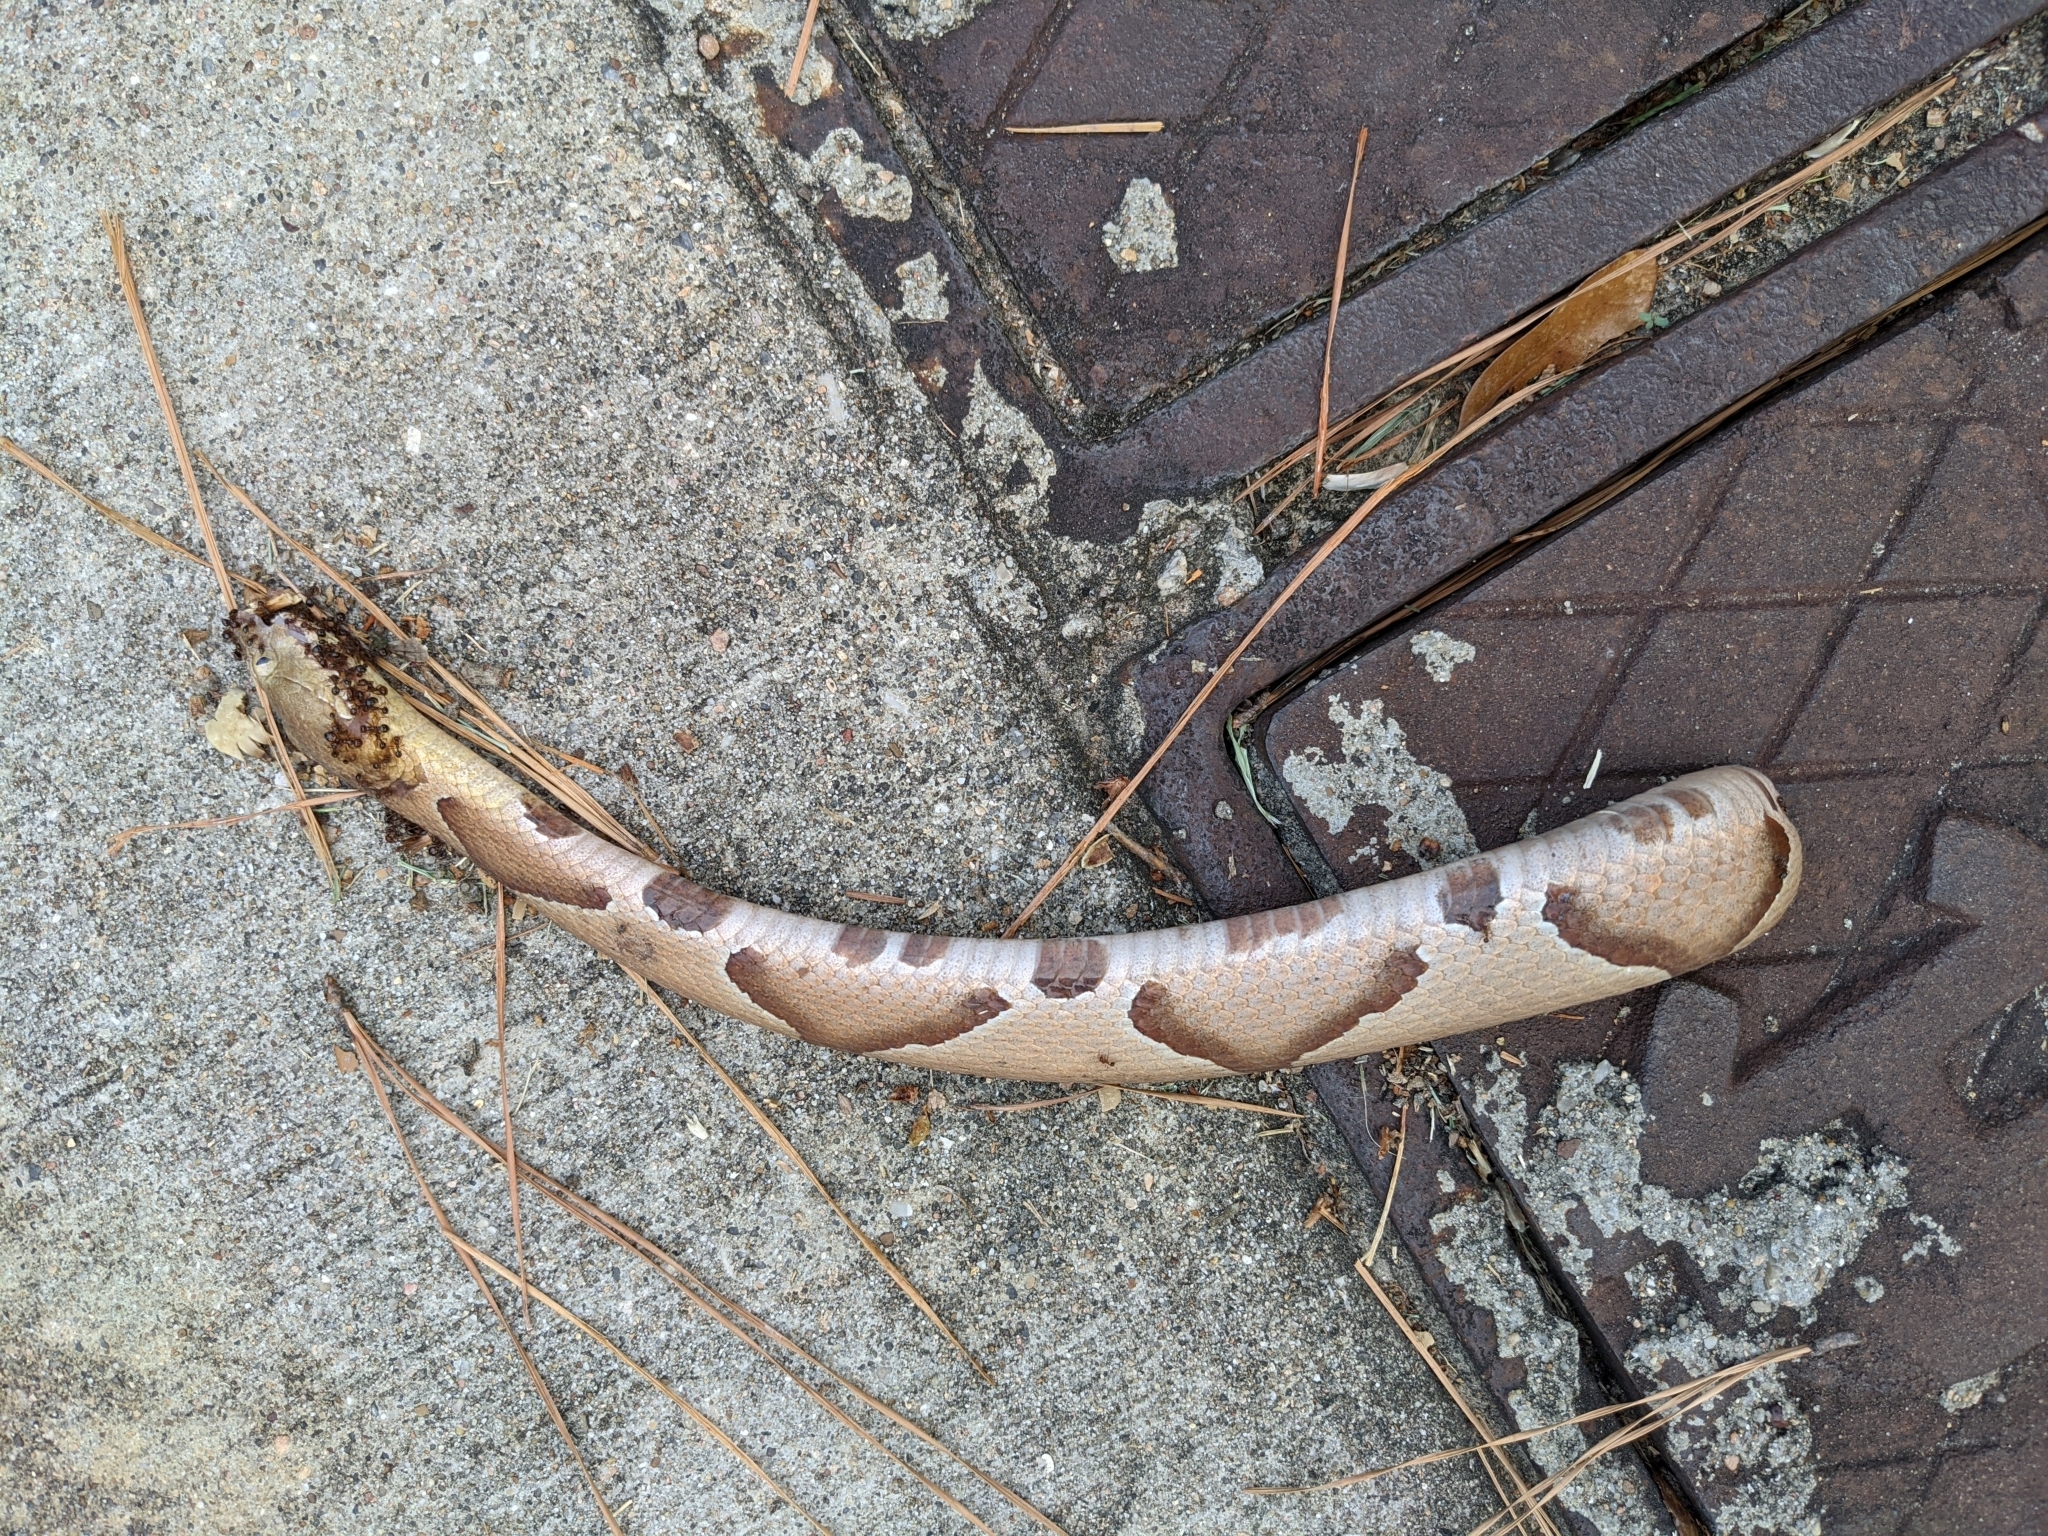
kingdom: Animalia
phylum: Chordata
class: Squamata
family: Viperidae
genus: Agkistrodon
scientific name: Agkistrodon contortrix
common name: Northern copperhead
